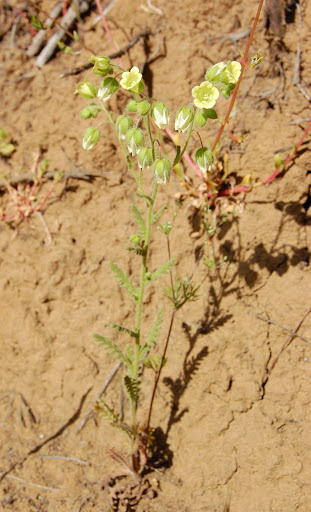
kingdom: Plantae
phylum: Tracheophyta
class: Magnoliopsida
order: Boraginales
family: Hydrophyllaceae
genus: Emmenanthe
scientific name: Emmenanthe penduliflora
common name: Whispering-bells
